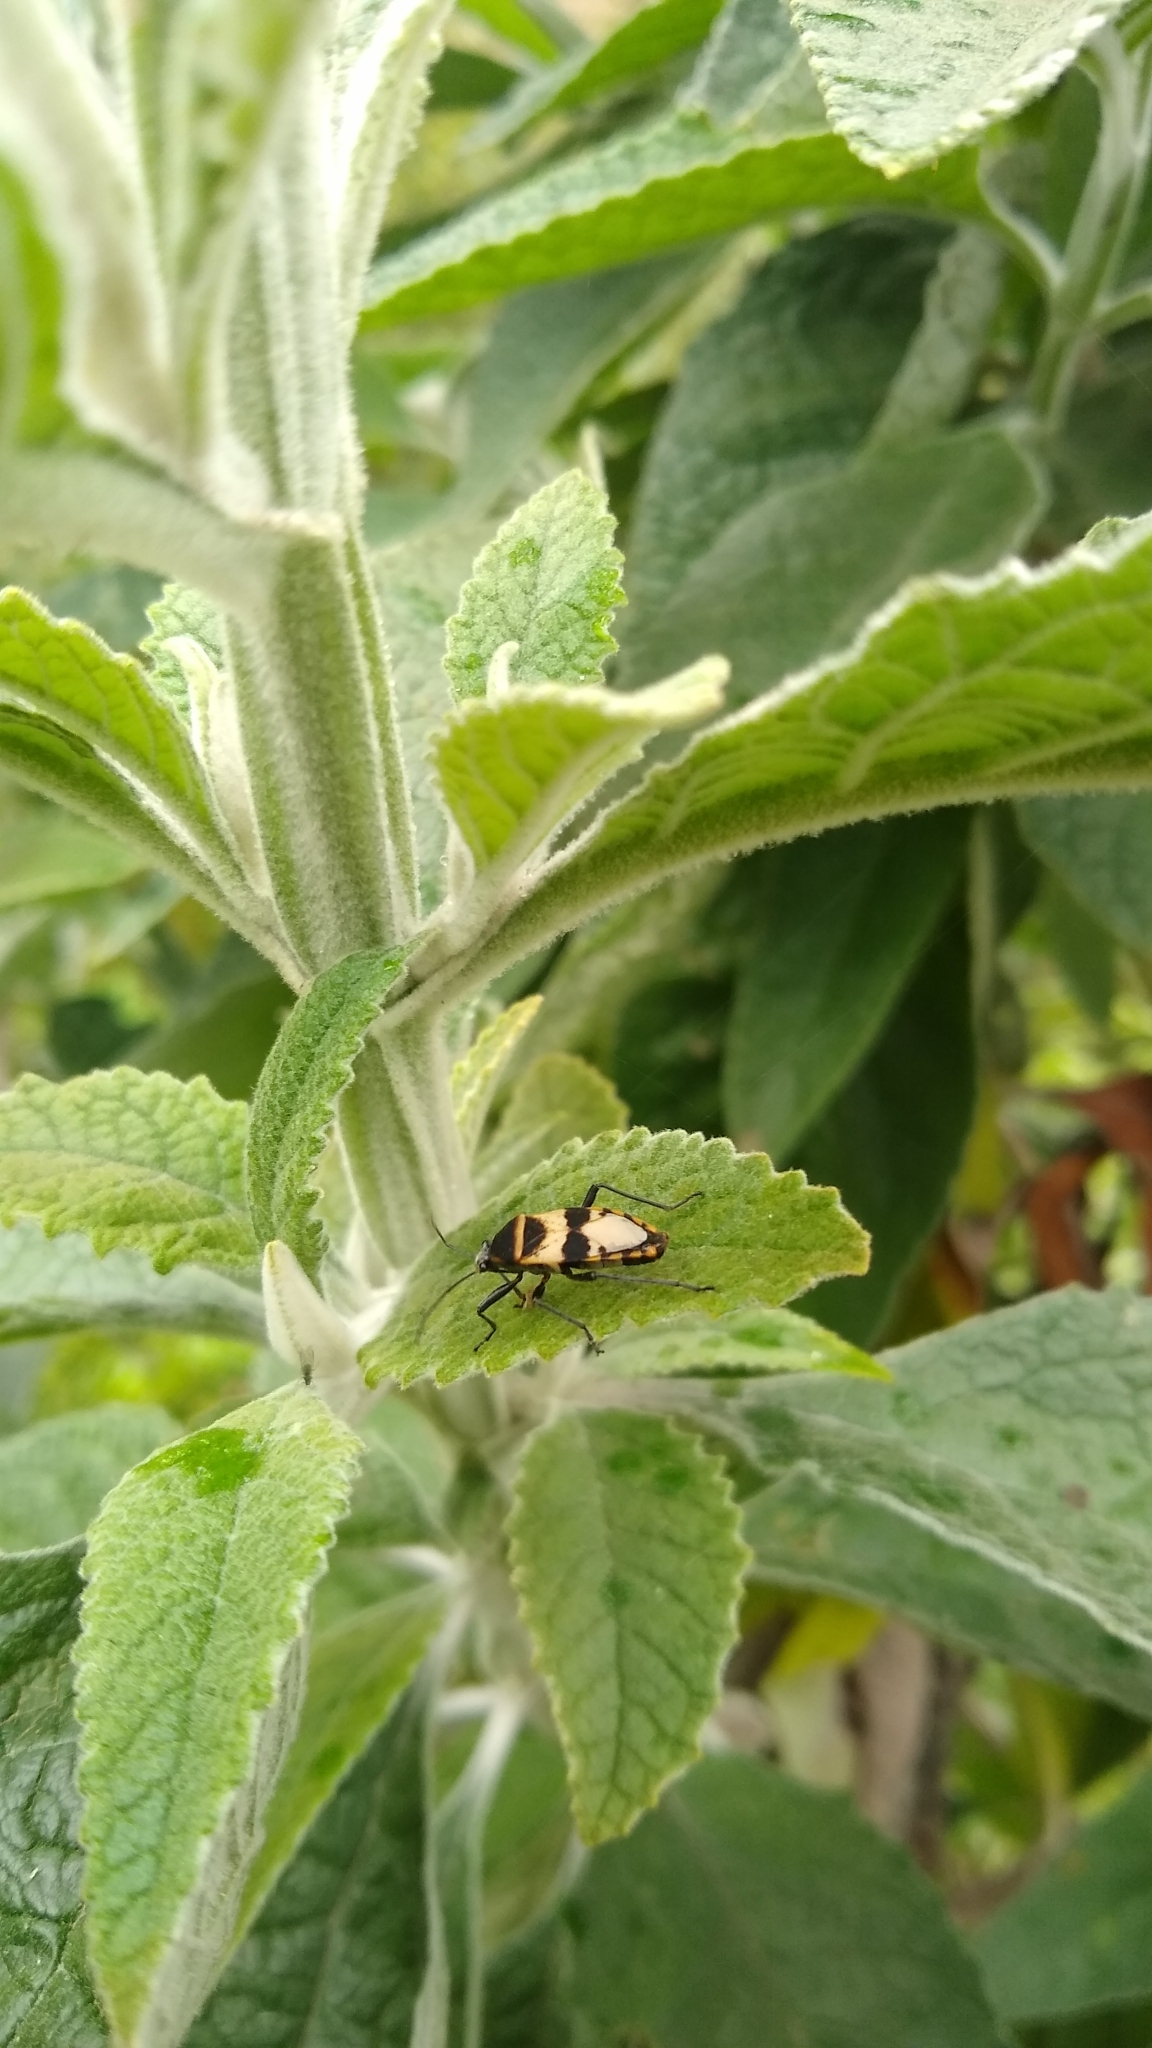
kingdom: Animalia
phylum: Arthropoda
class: Insecta
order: Hemiptera
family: Largidae
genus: Largus
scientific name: Largus fasciatus
